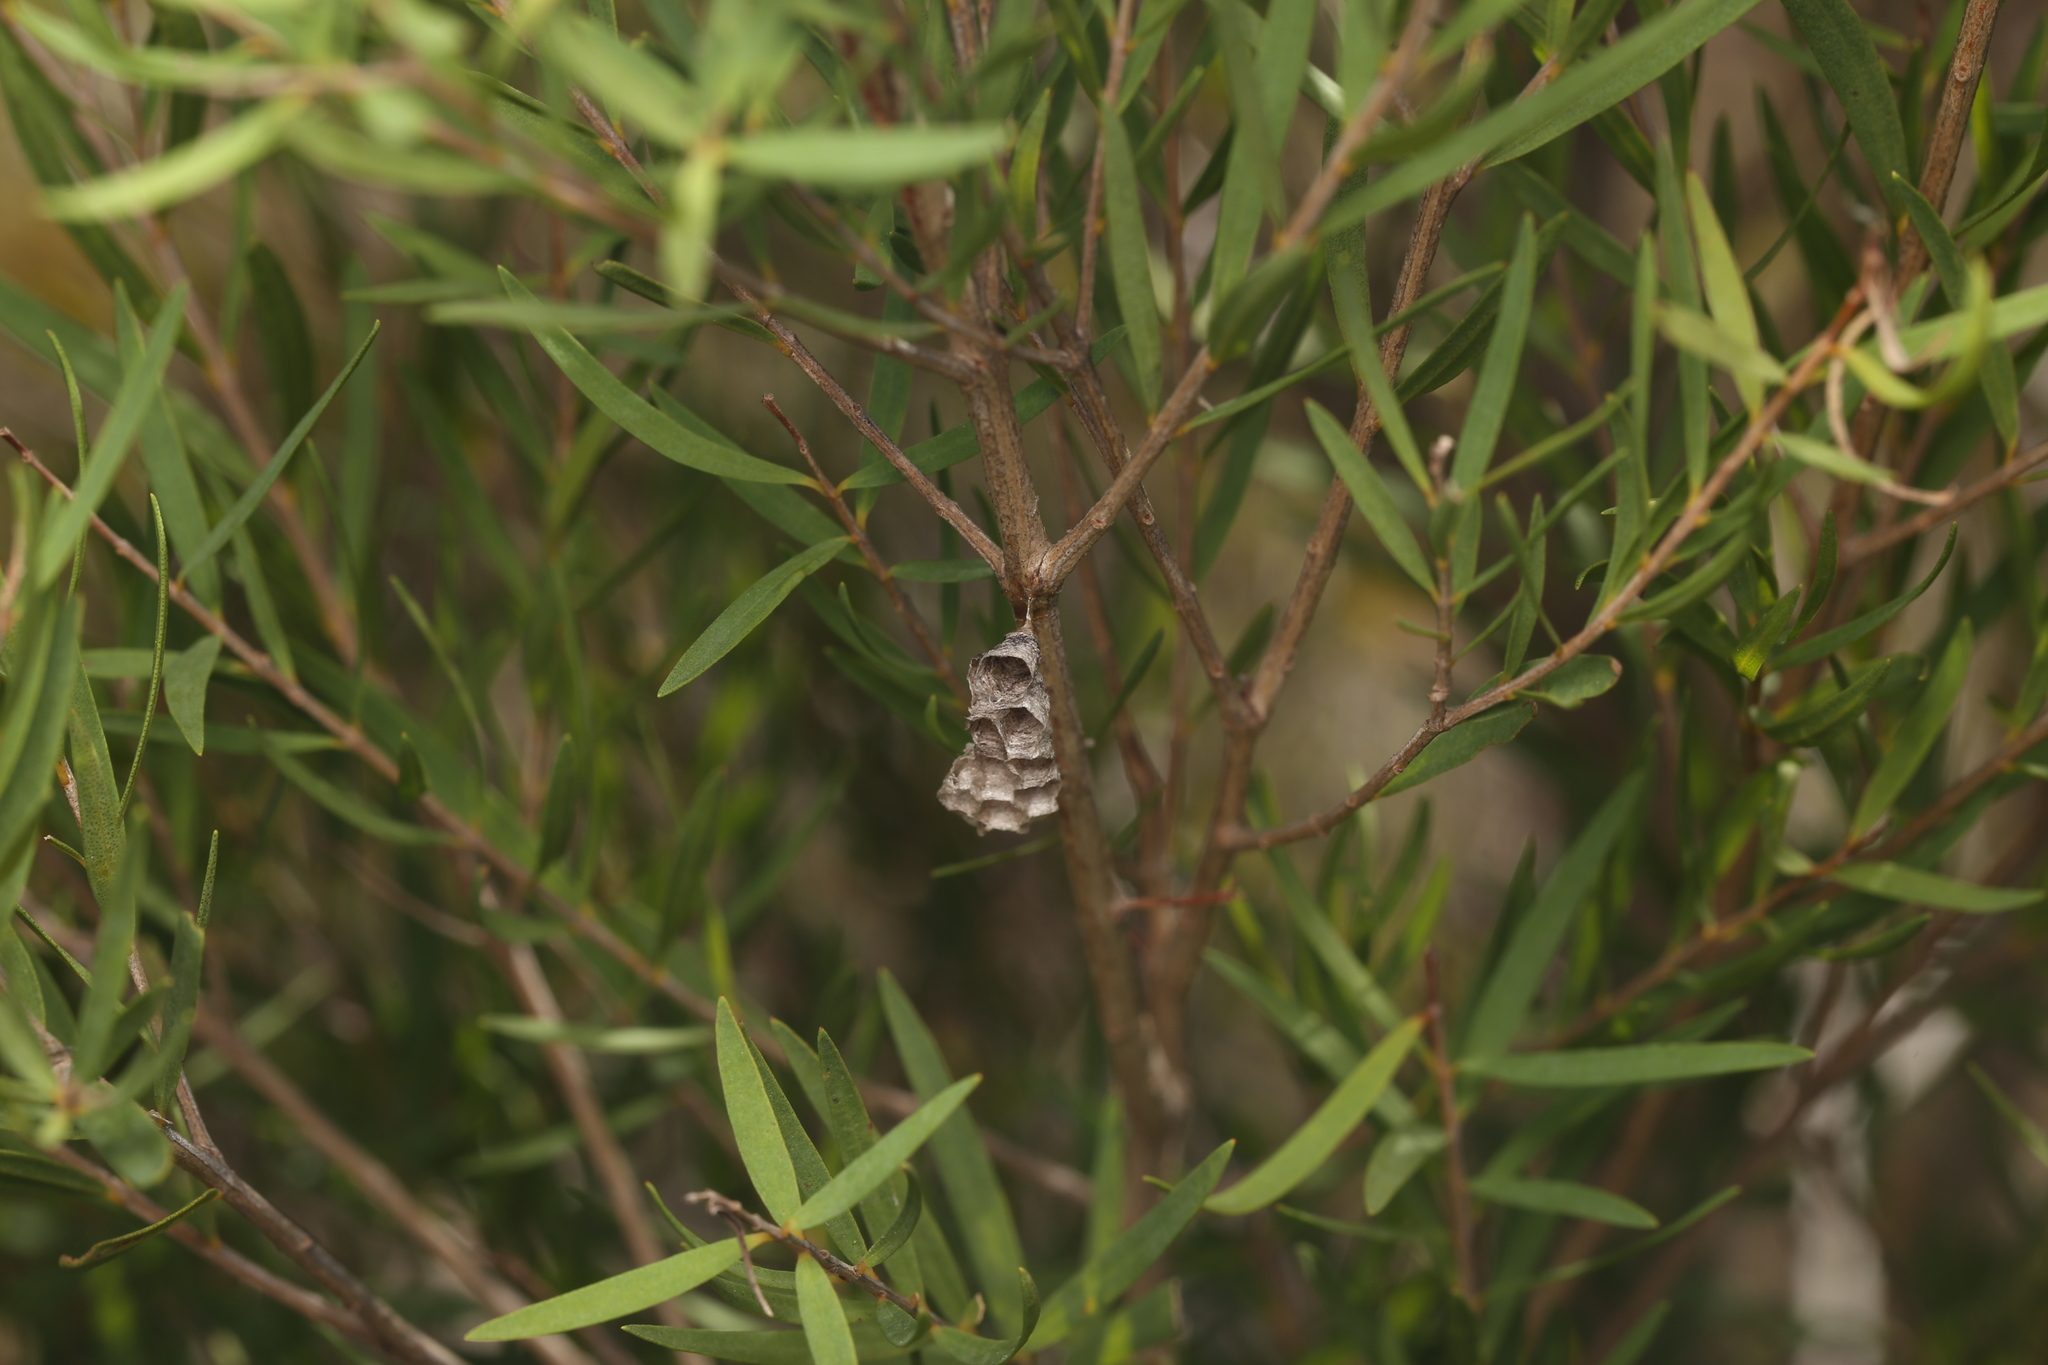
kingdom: Animalia
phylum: Arthropoda
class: Insecta
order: Hymenoptera
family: Vespidae
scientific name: Vespidae
